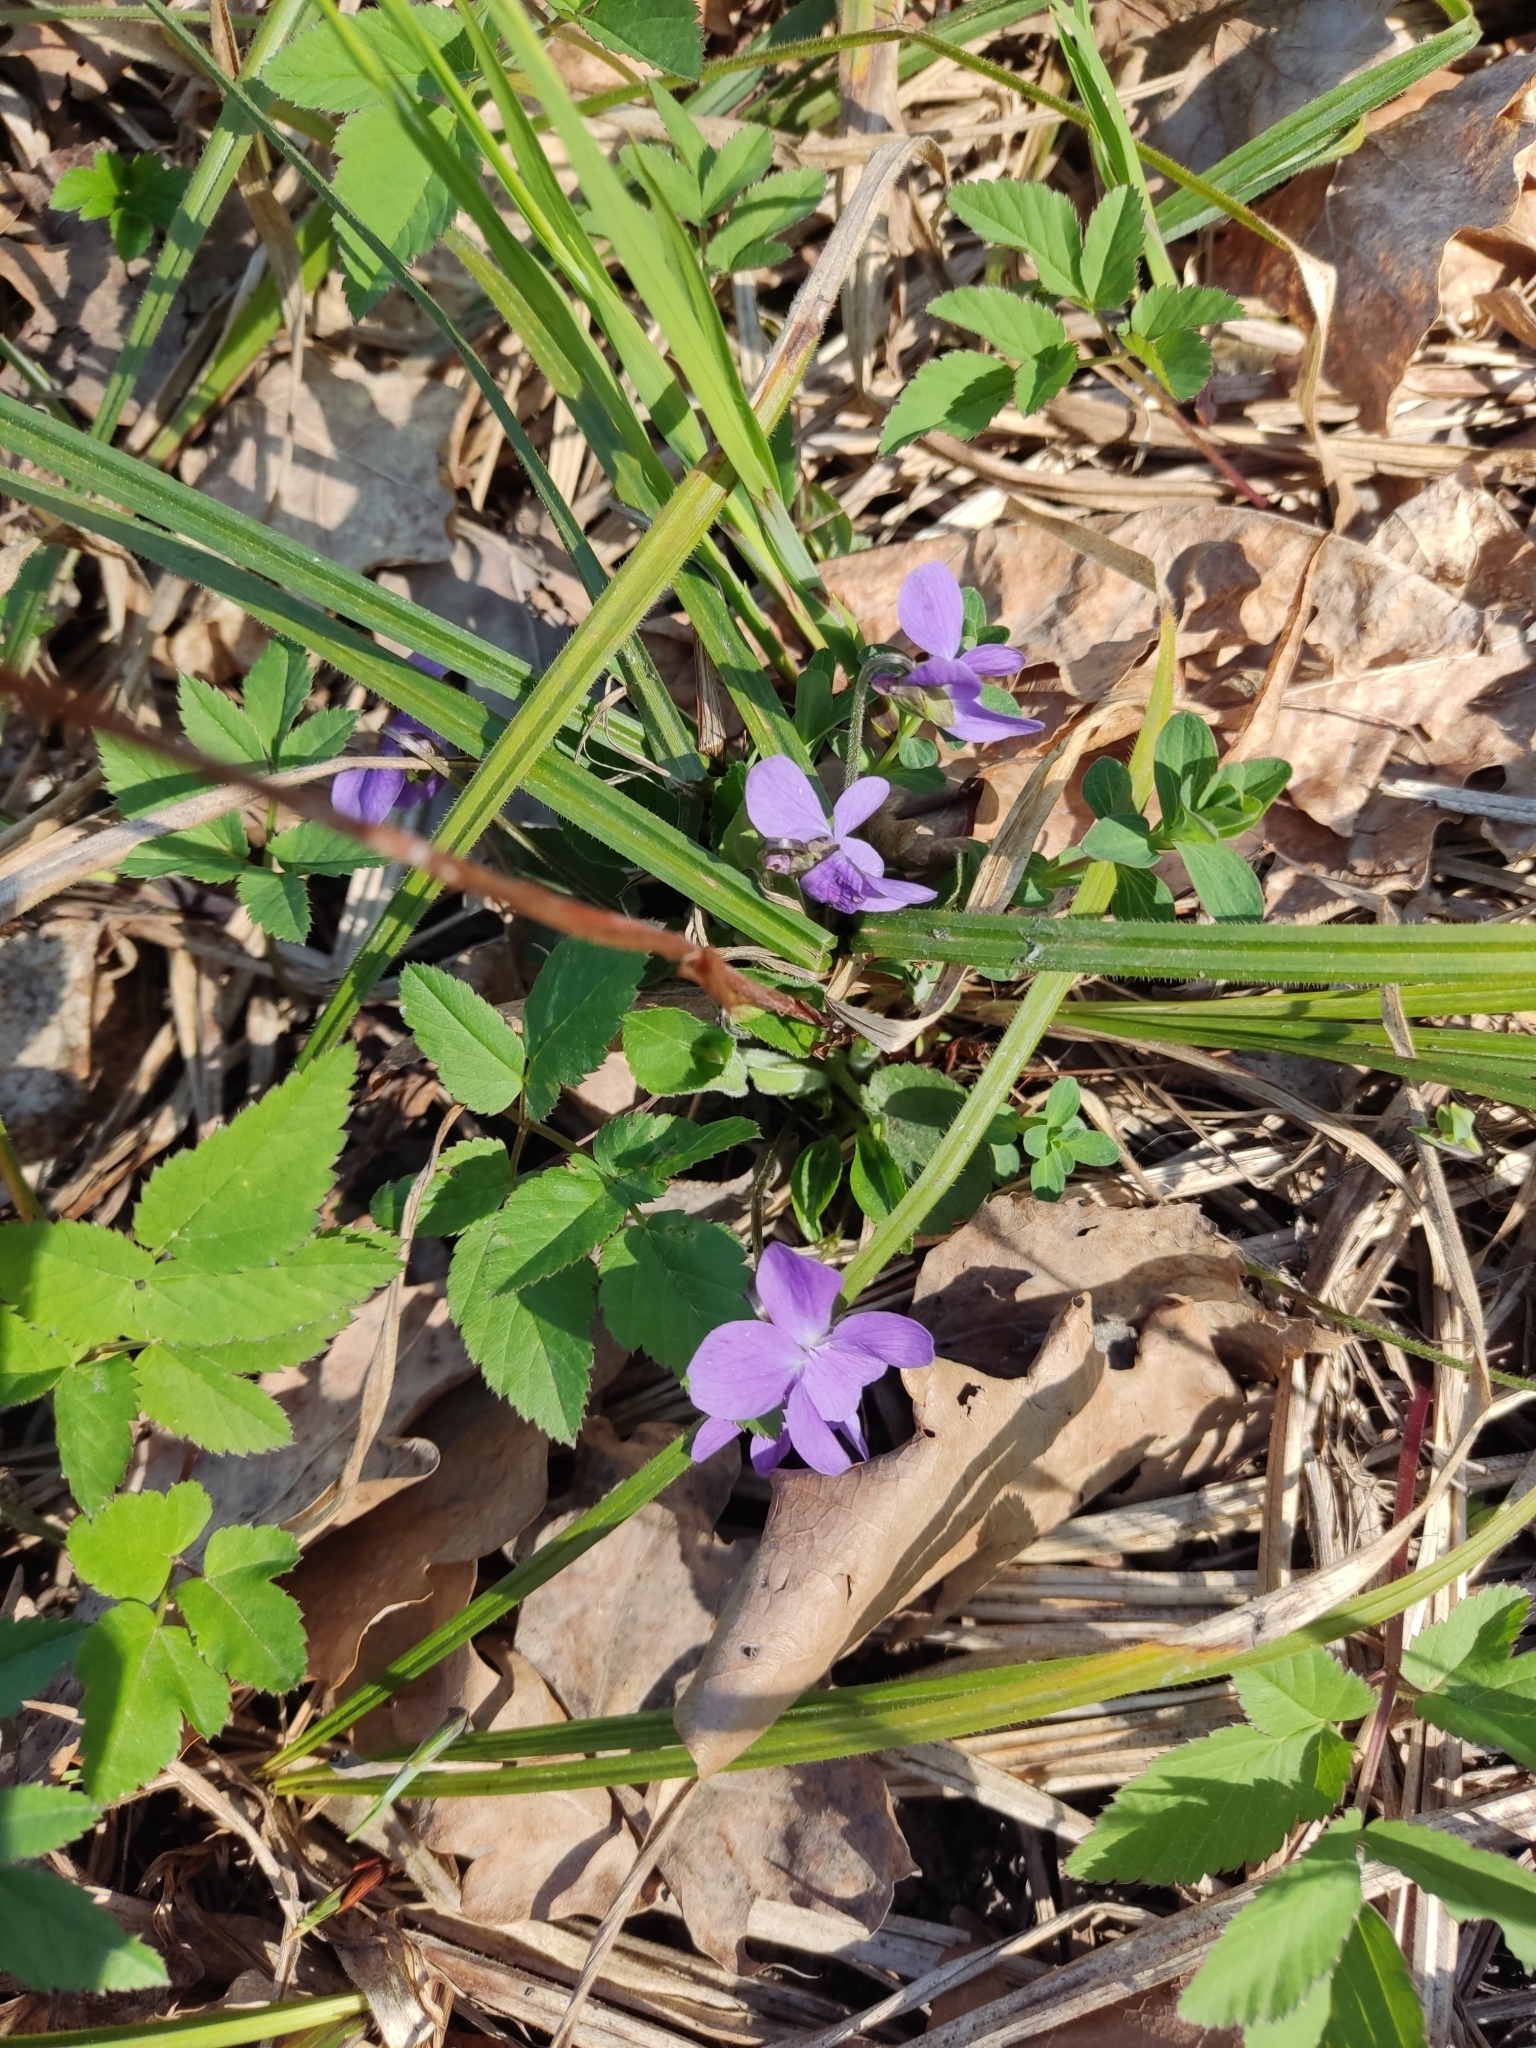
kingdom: Plantae
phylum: Tracheophyta
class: Magnoliopsida
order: Malpighiales
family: Violaceae
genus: Viola
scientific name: Viola hirta
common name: Hairy violet
